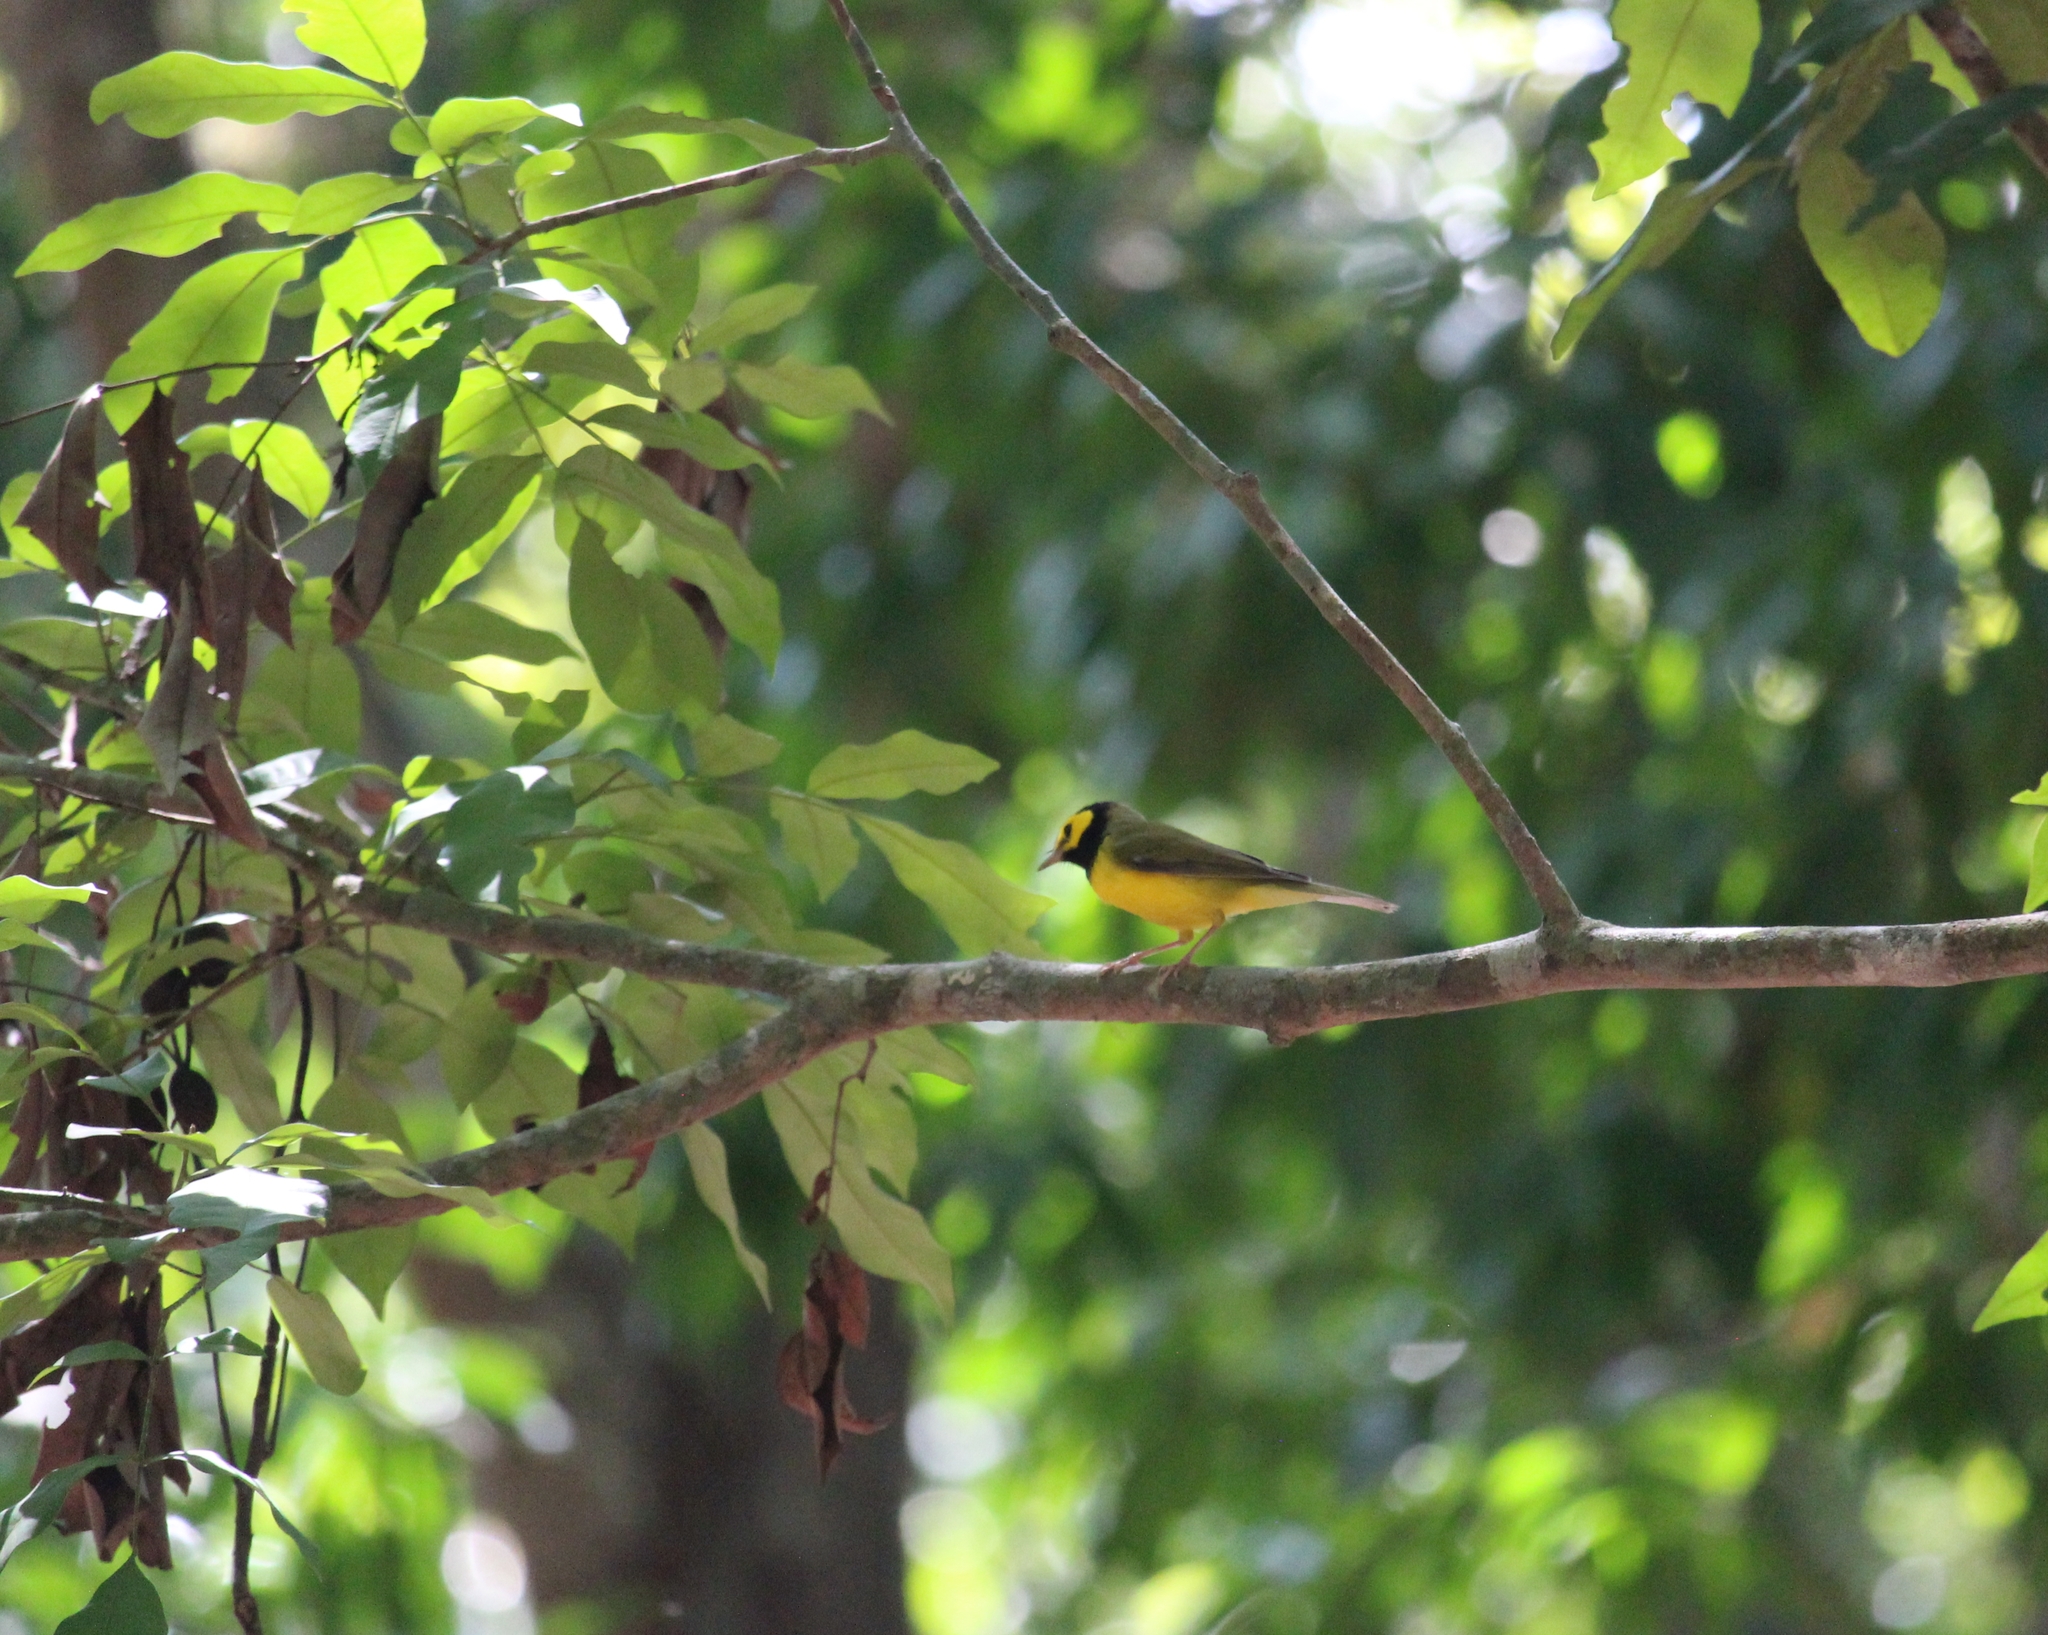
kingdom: Animalia
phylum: Chordata
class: Aves
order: Passeriformes
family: Parulidae
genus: Setophaga
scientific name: Setophaga citrina
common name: Hooded warbler
